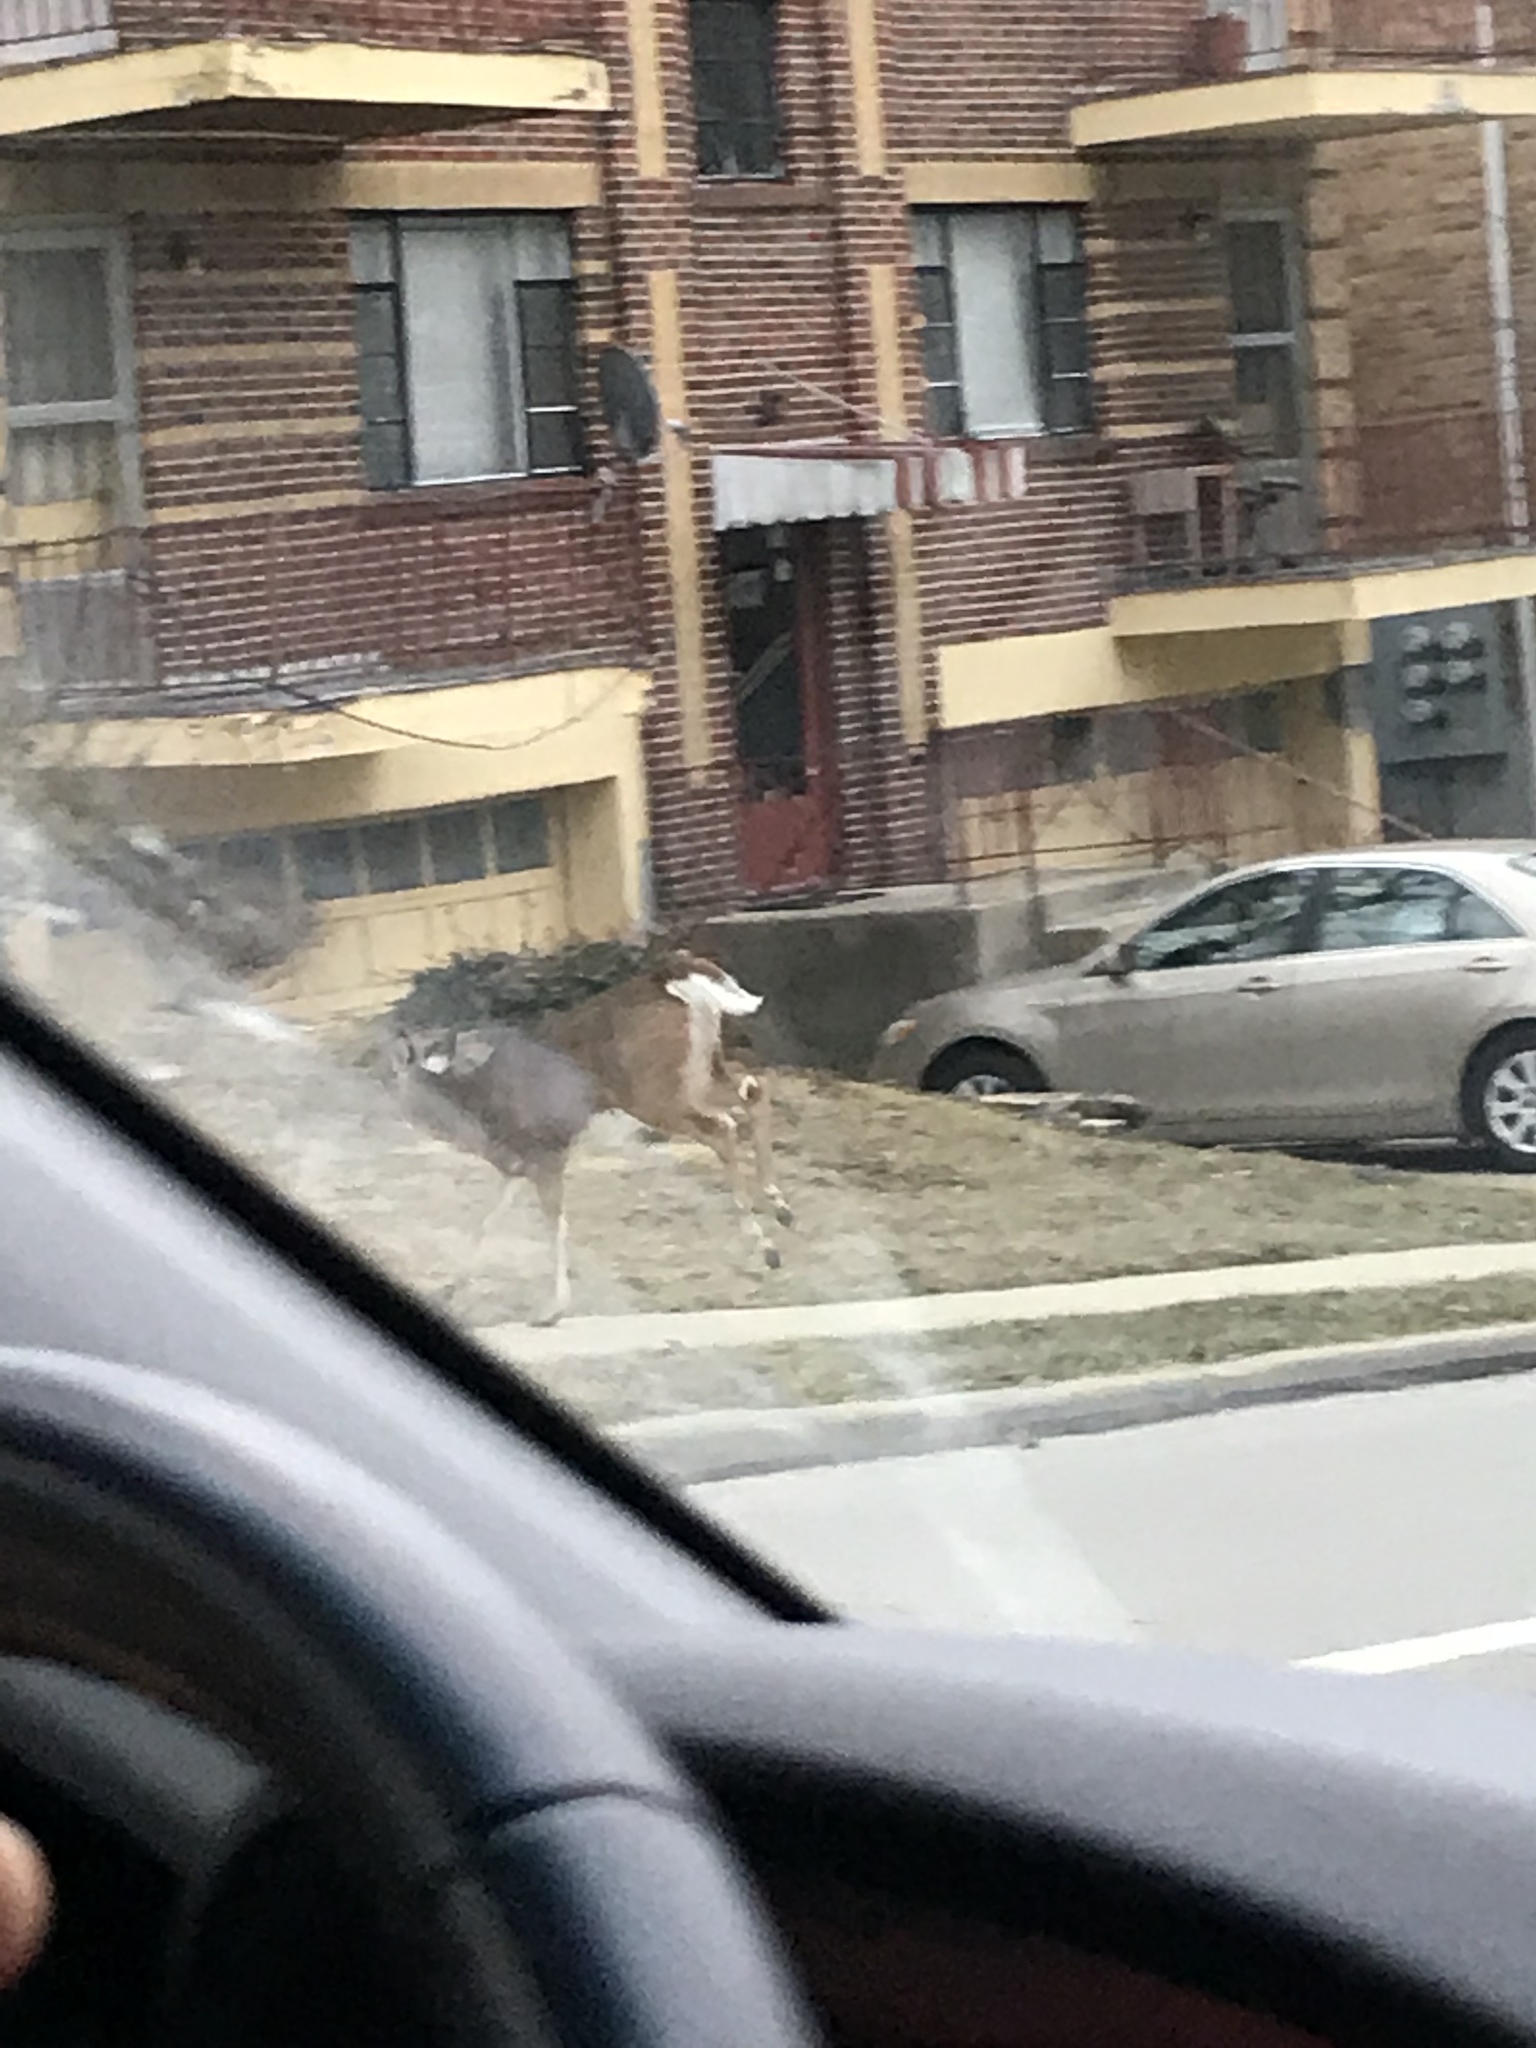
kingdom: Animalia
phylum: Chordata
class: Mammalia
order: Artiodactyla
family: Cervidae
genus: Odocoileus
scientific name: Odocoileus virginianus
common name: White-tailed deer
